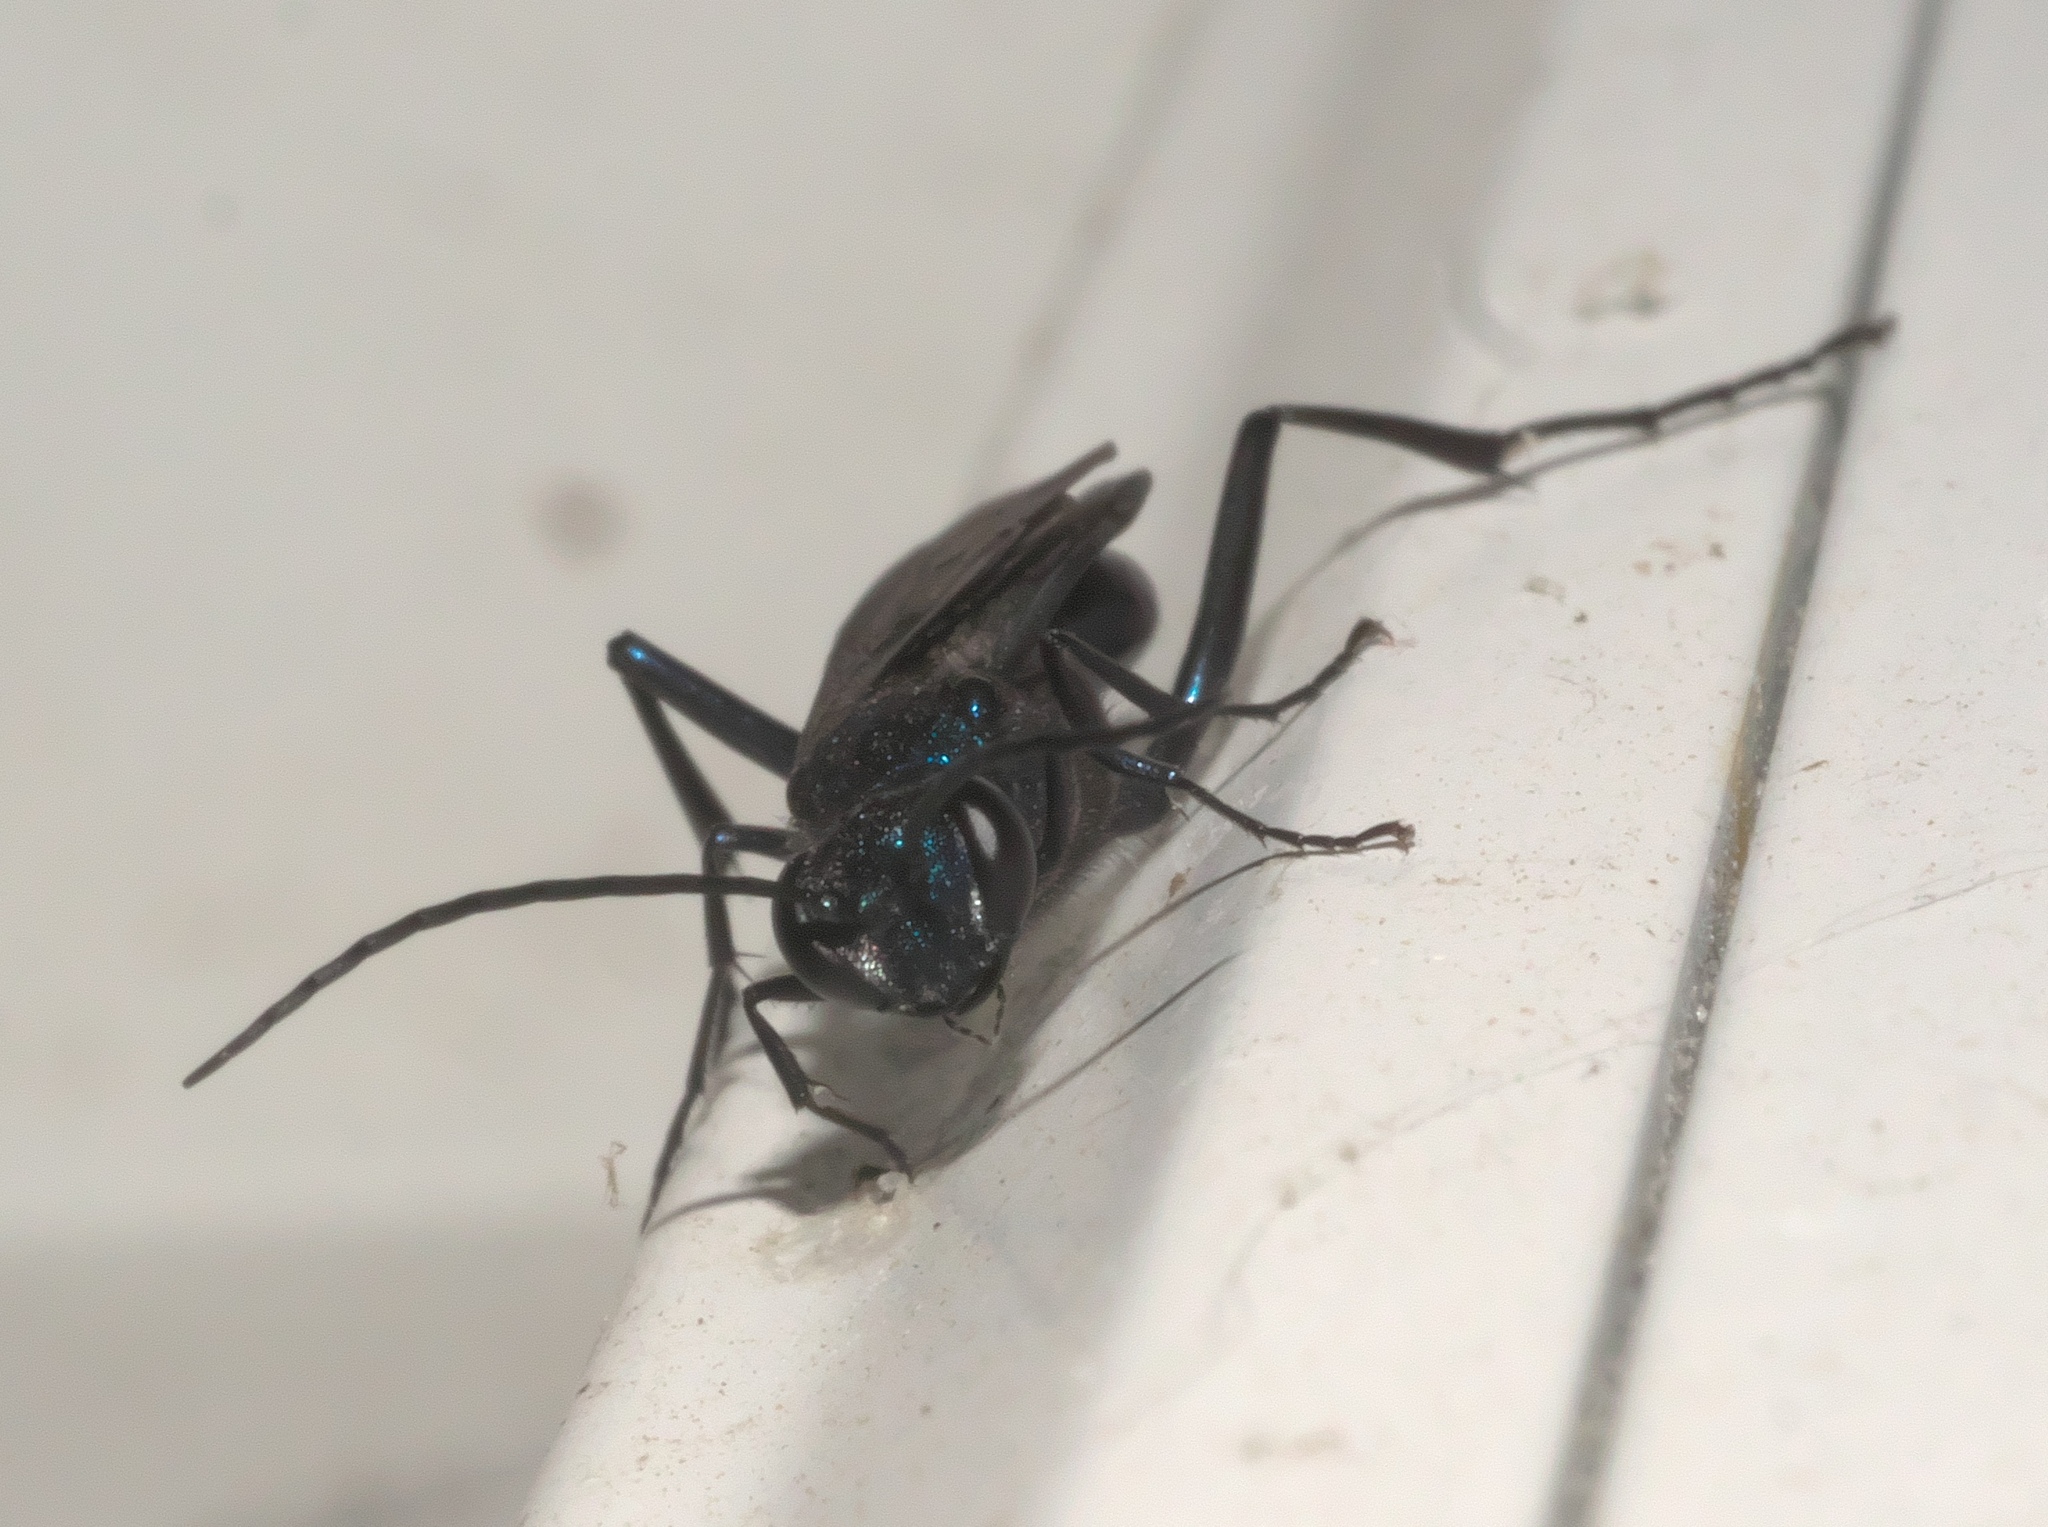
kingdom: Animalia
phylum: Arthropoda
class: Insecta
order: Hymenoptera
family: Sphecidae
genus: Chalybion
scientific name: Chalybion californicum
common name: Mud dauber
